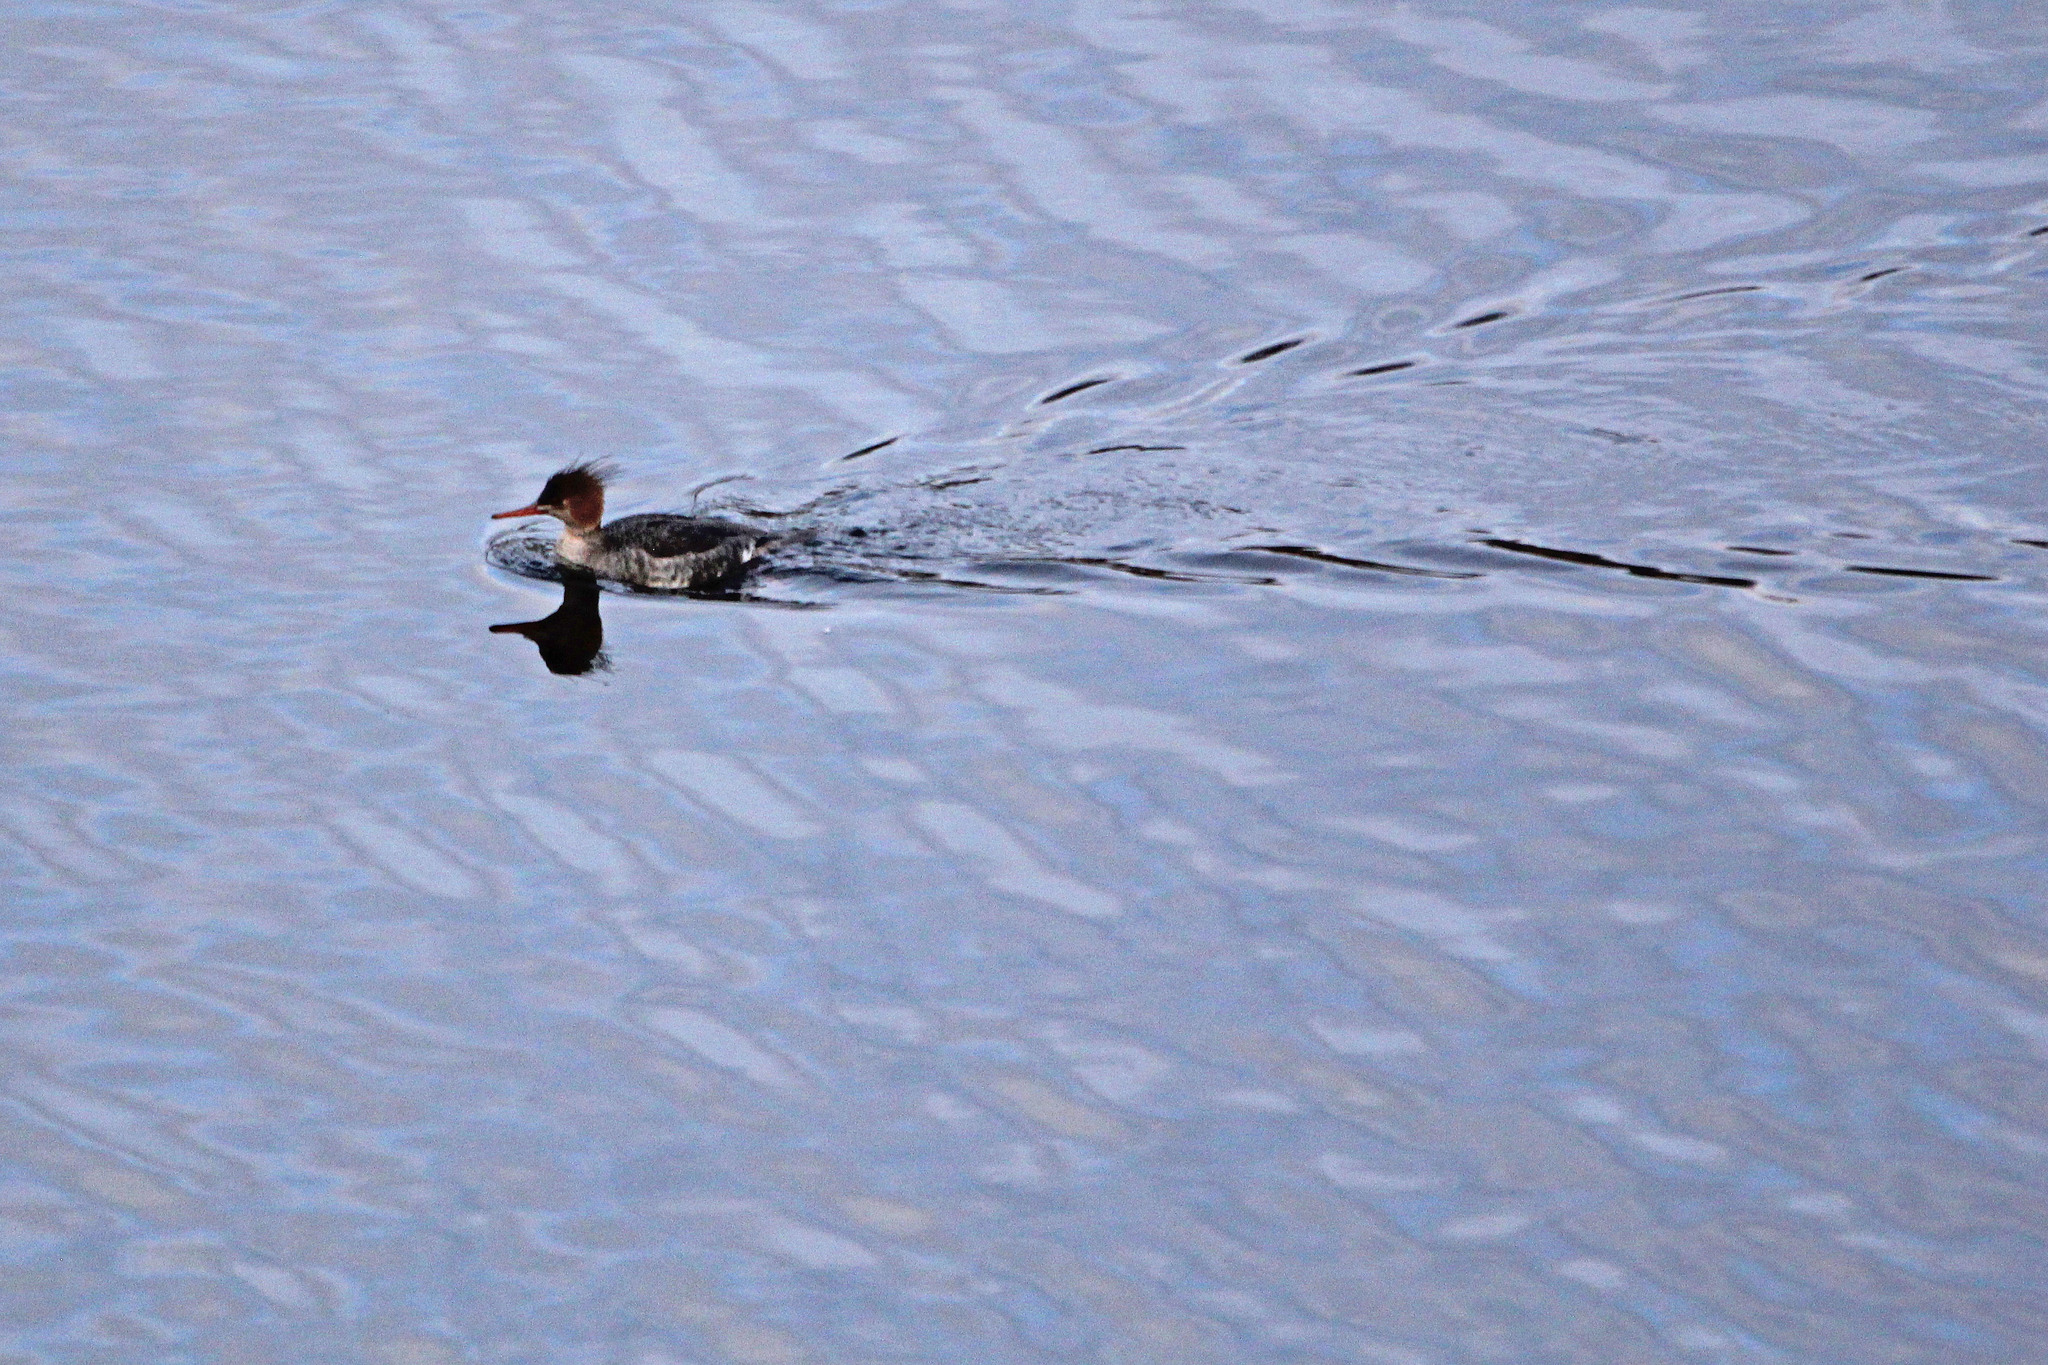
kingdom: Animalia
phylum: Chordata
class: Aves
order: Anseriformes
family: Anatidae
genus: Mergus
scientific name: Mergus serrator
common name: Red-breasted merganser
